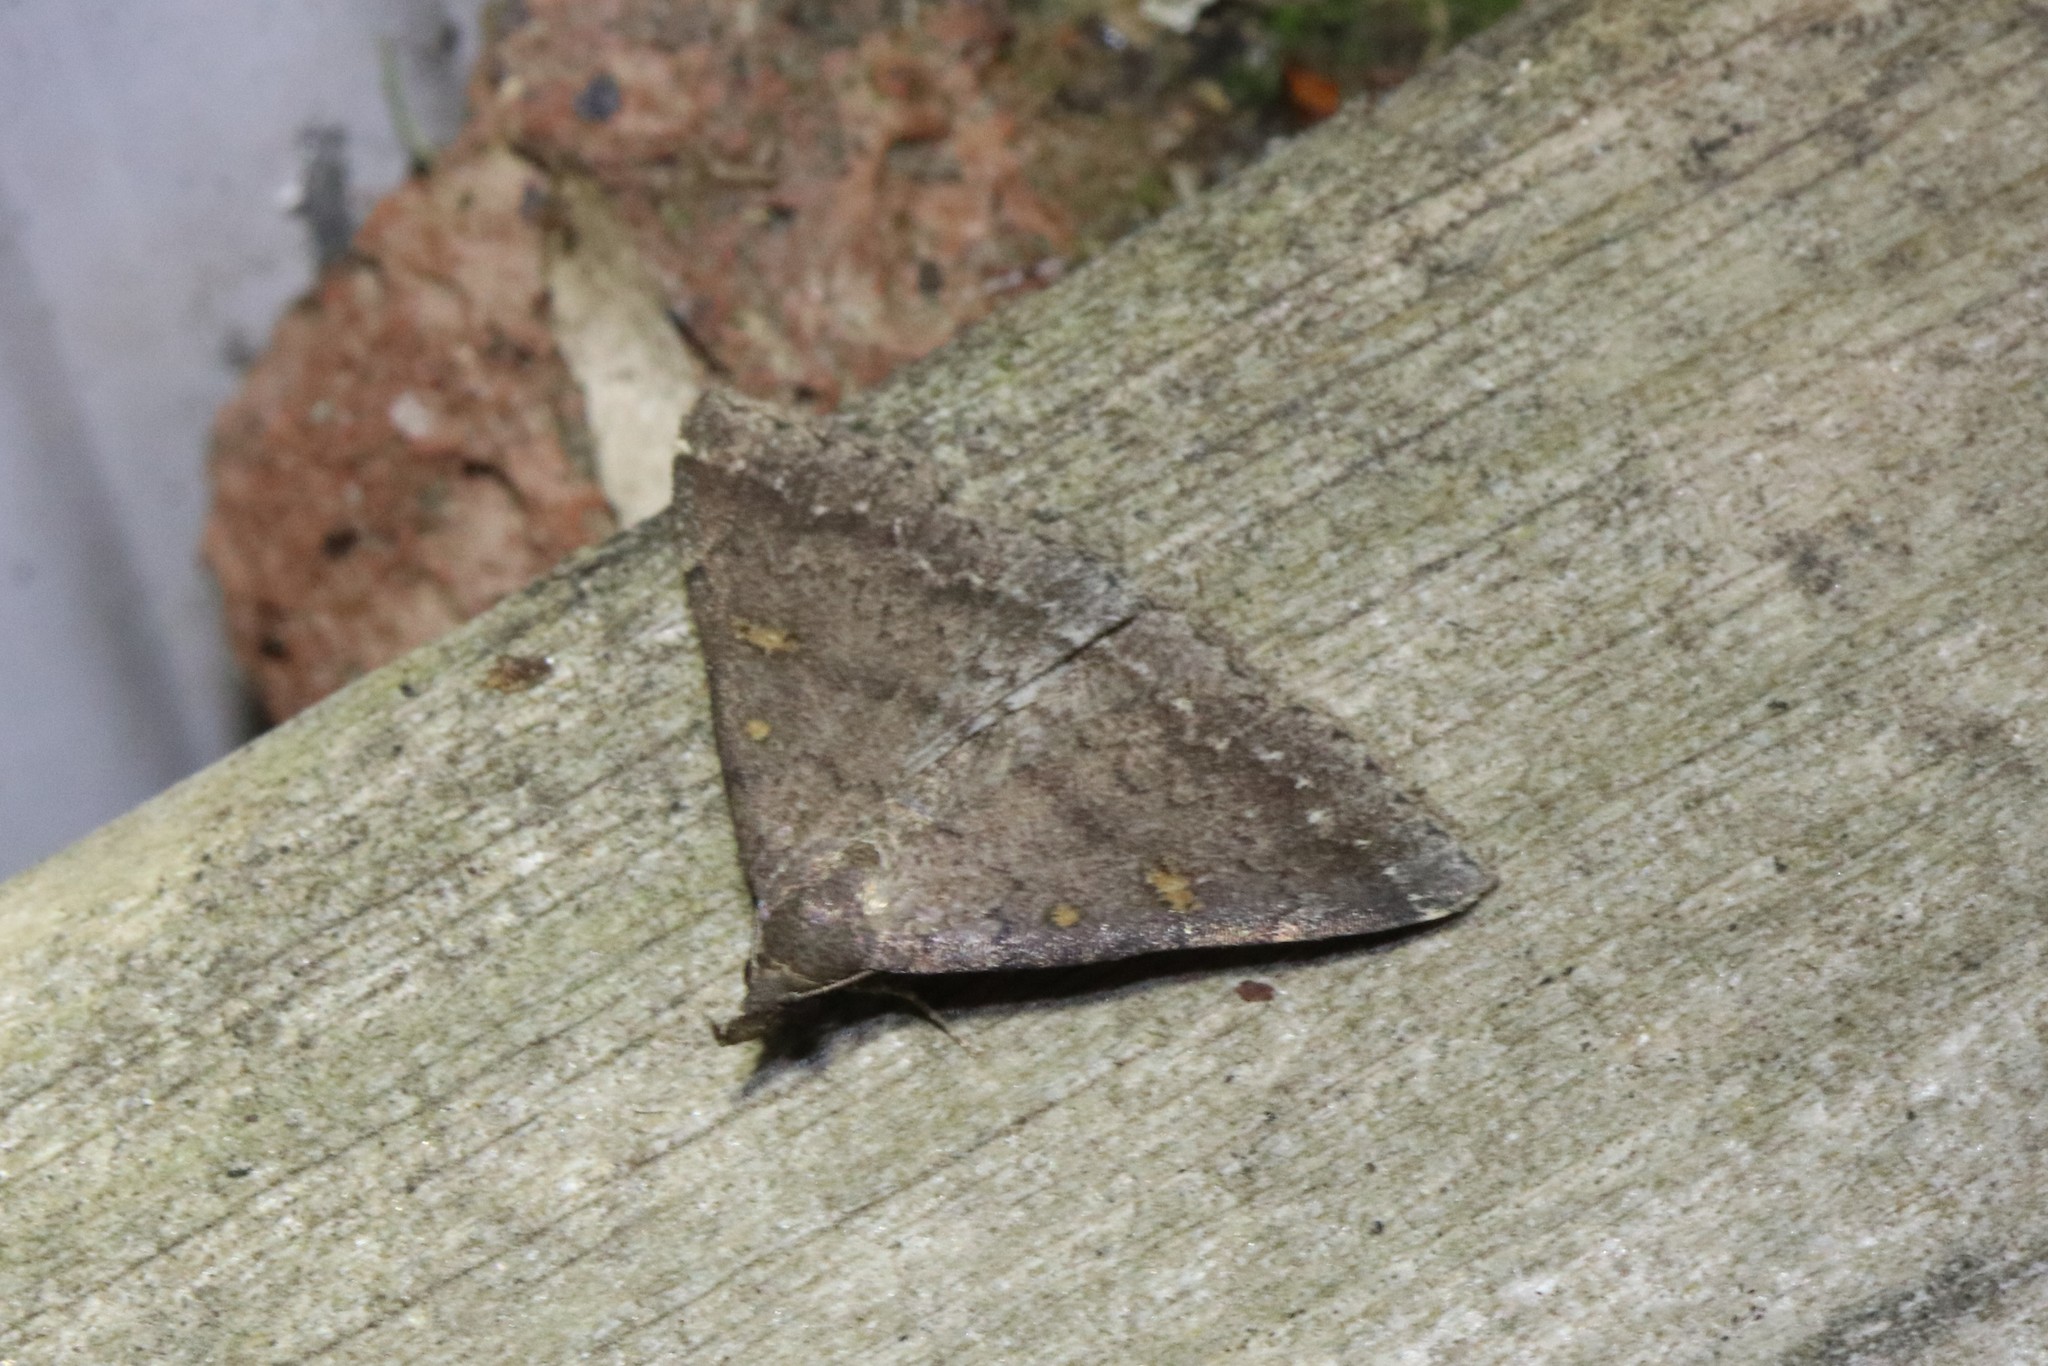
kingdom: Animalia
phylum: Arthropoda
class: Insecta
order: Lepidoptera
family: Erebidae
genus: Renia
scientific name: Renia sobrialis
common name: Sober renia moth
